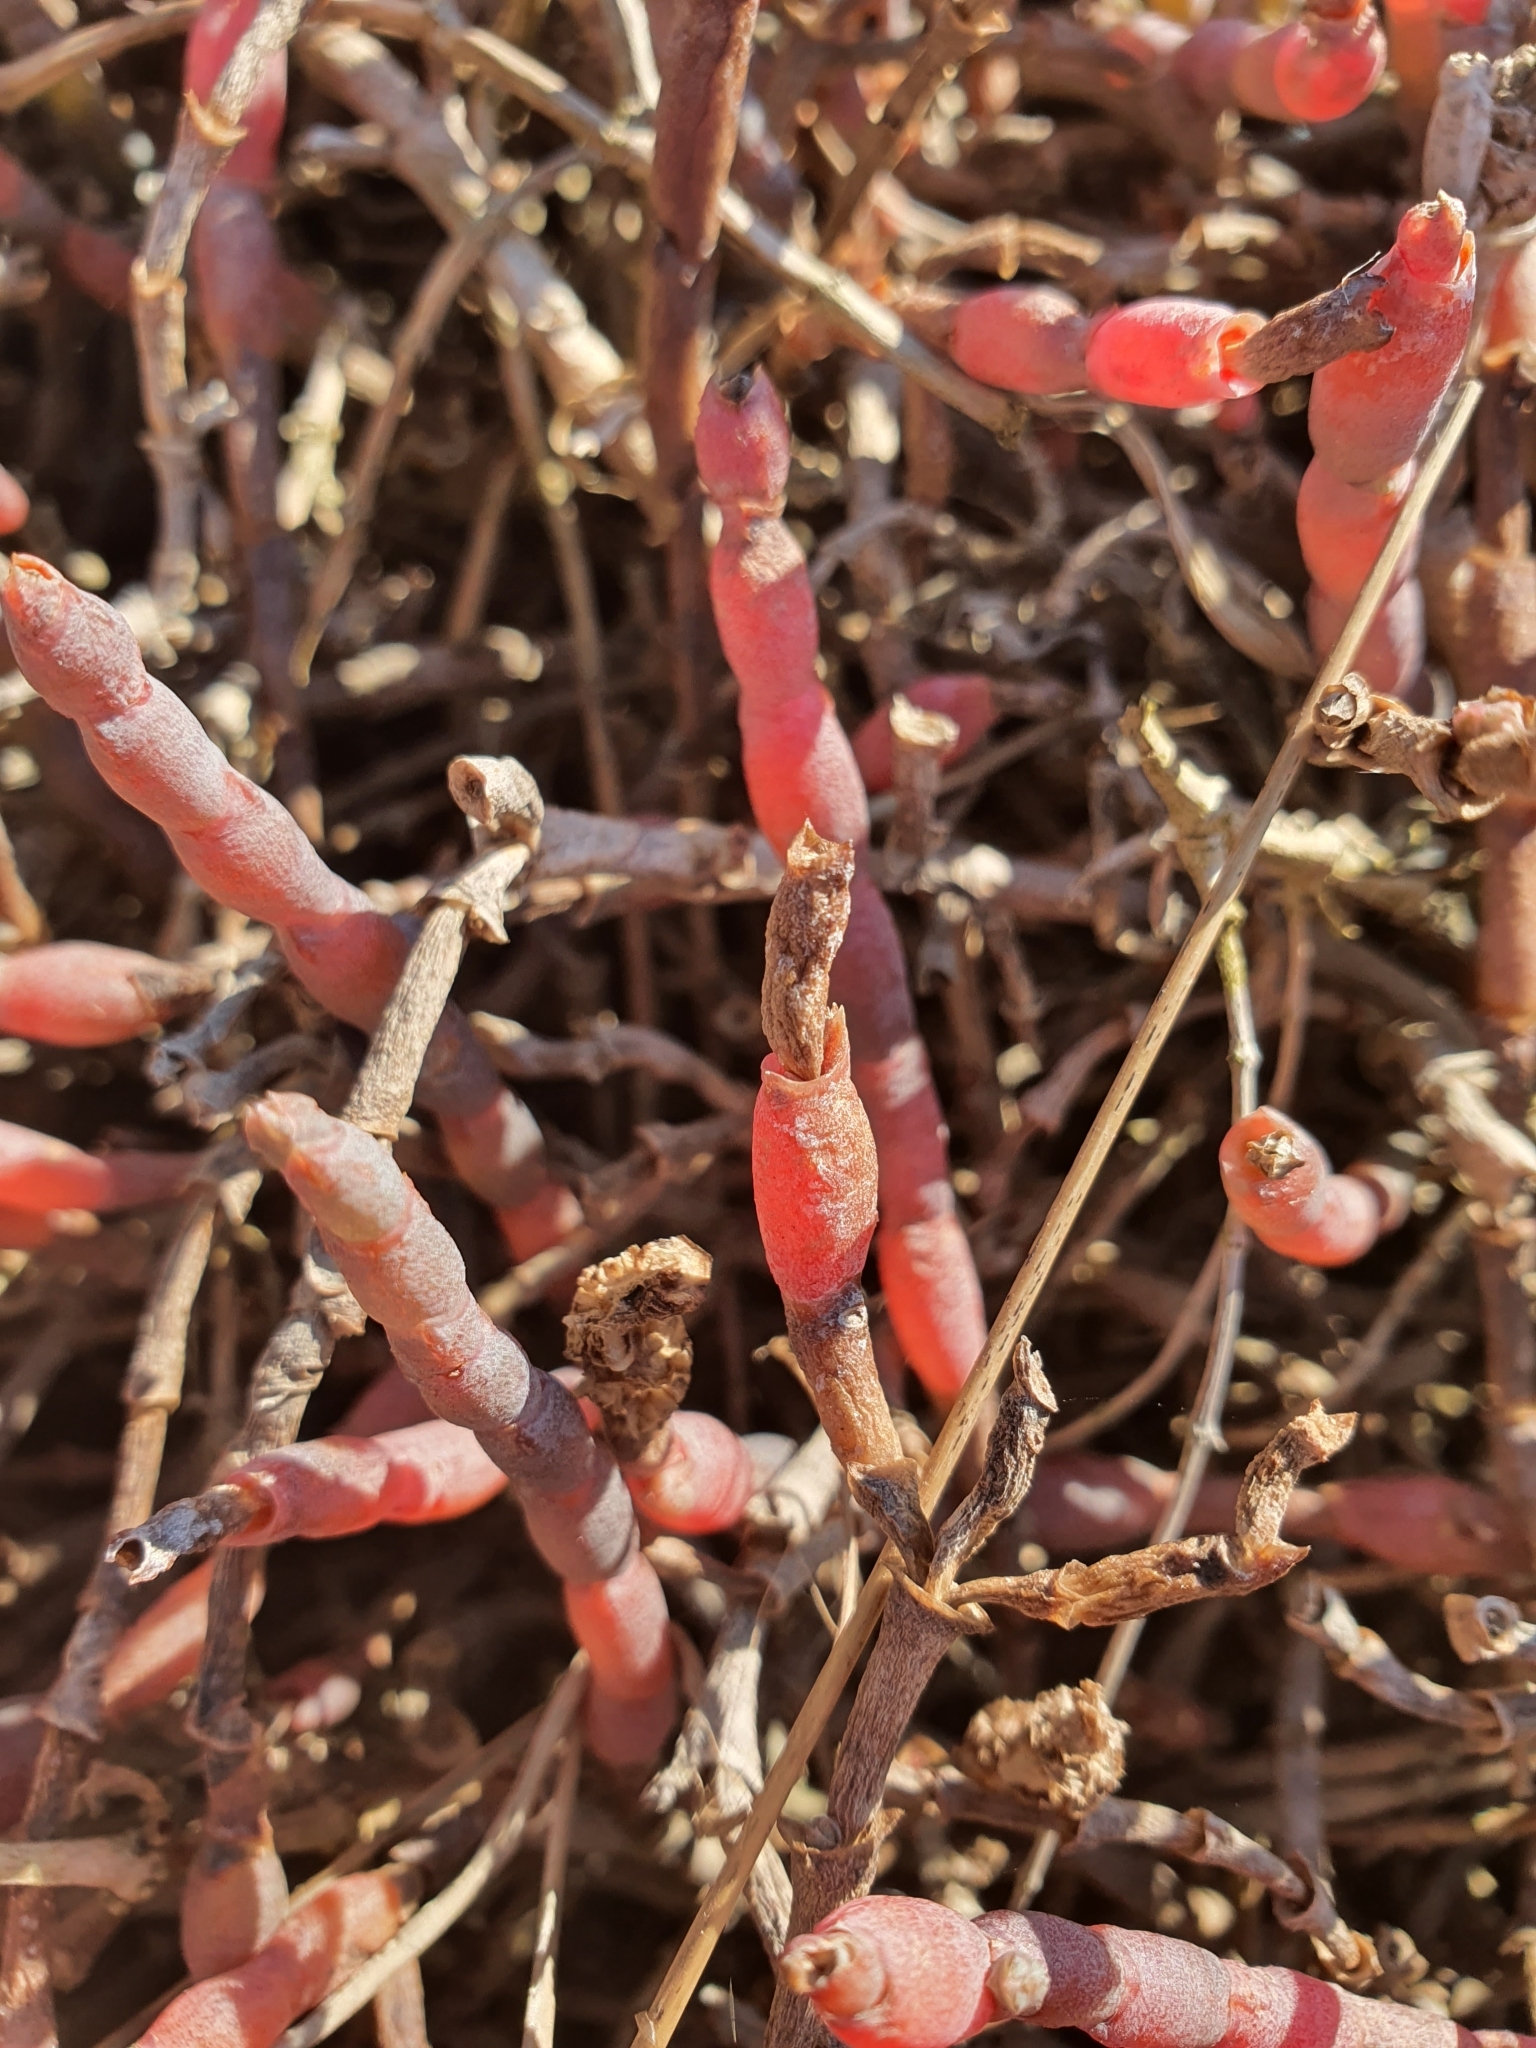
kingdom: Plantae
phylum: Tracheophyta
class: Magnoliopsida
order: Caryophyllales
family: Amaranthaceae
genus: Salicornia
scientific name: Salicornia quinqueflora
